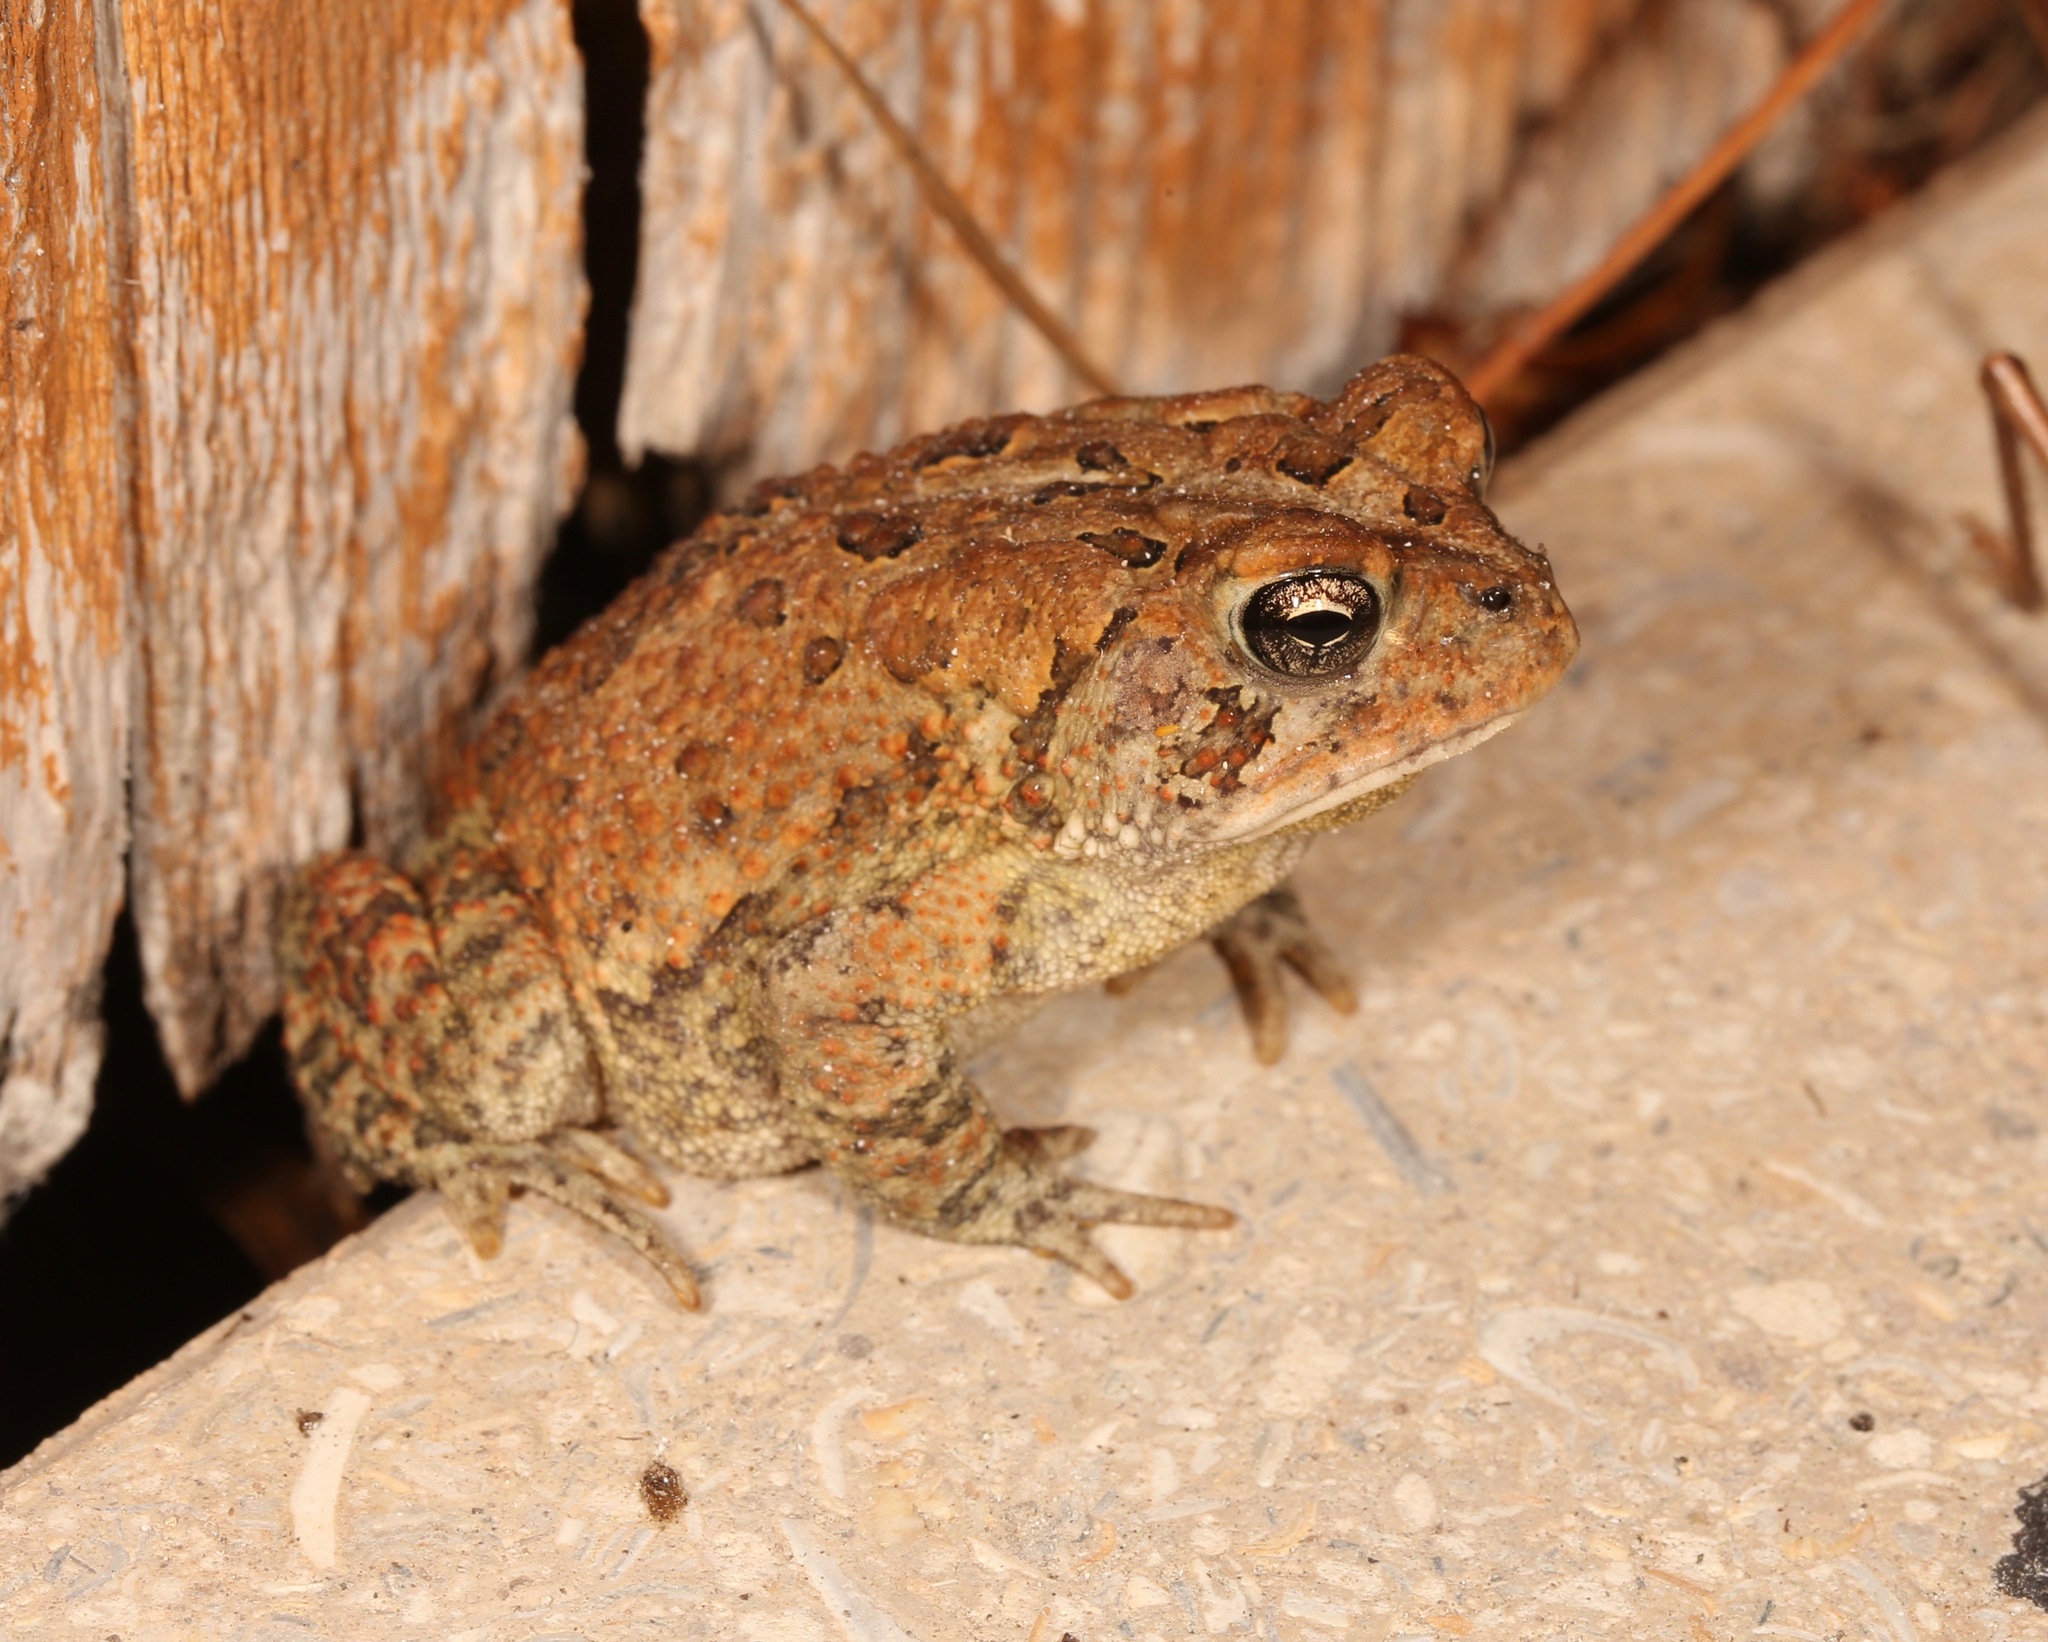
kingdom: Animalia
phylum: Chordata
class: Amphibia
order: Anura
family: Bufonidae
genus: Anaxyrus
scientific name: Anaxyrus terrestris
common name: Southern toad
